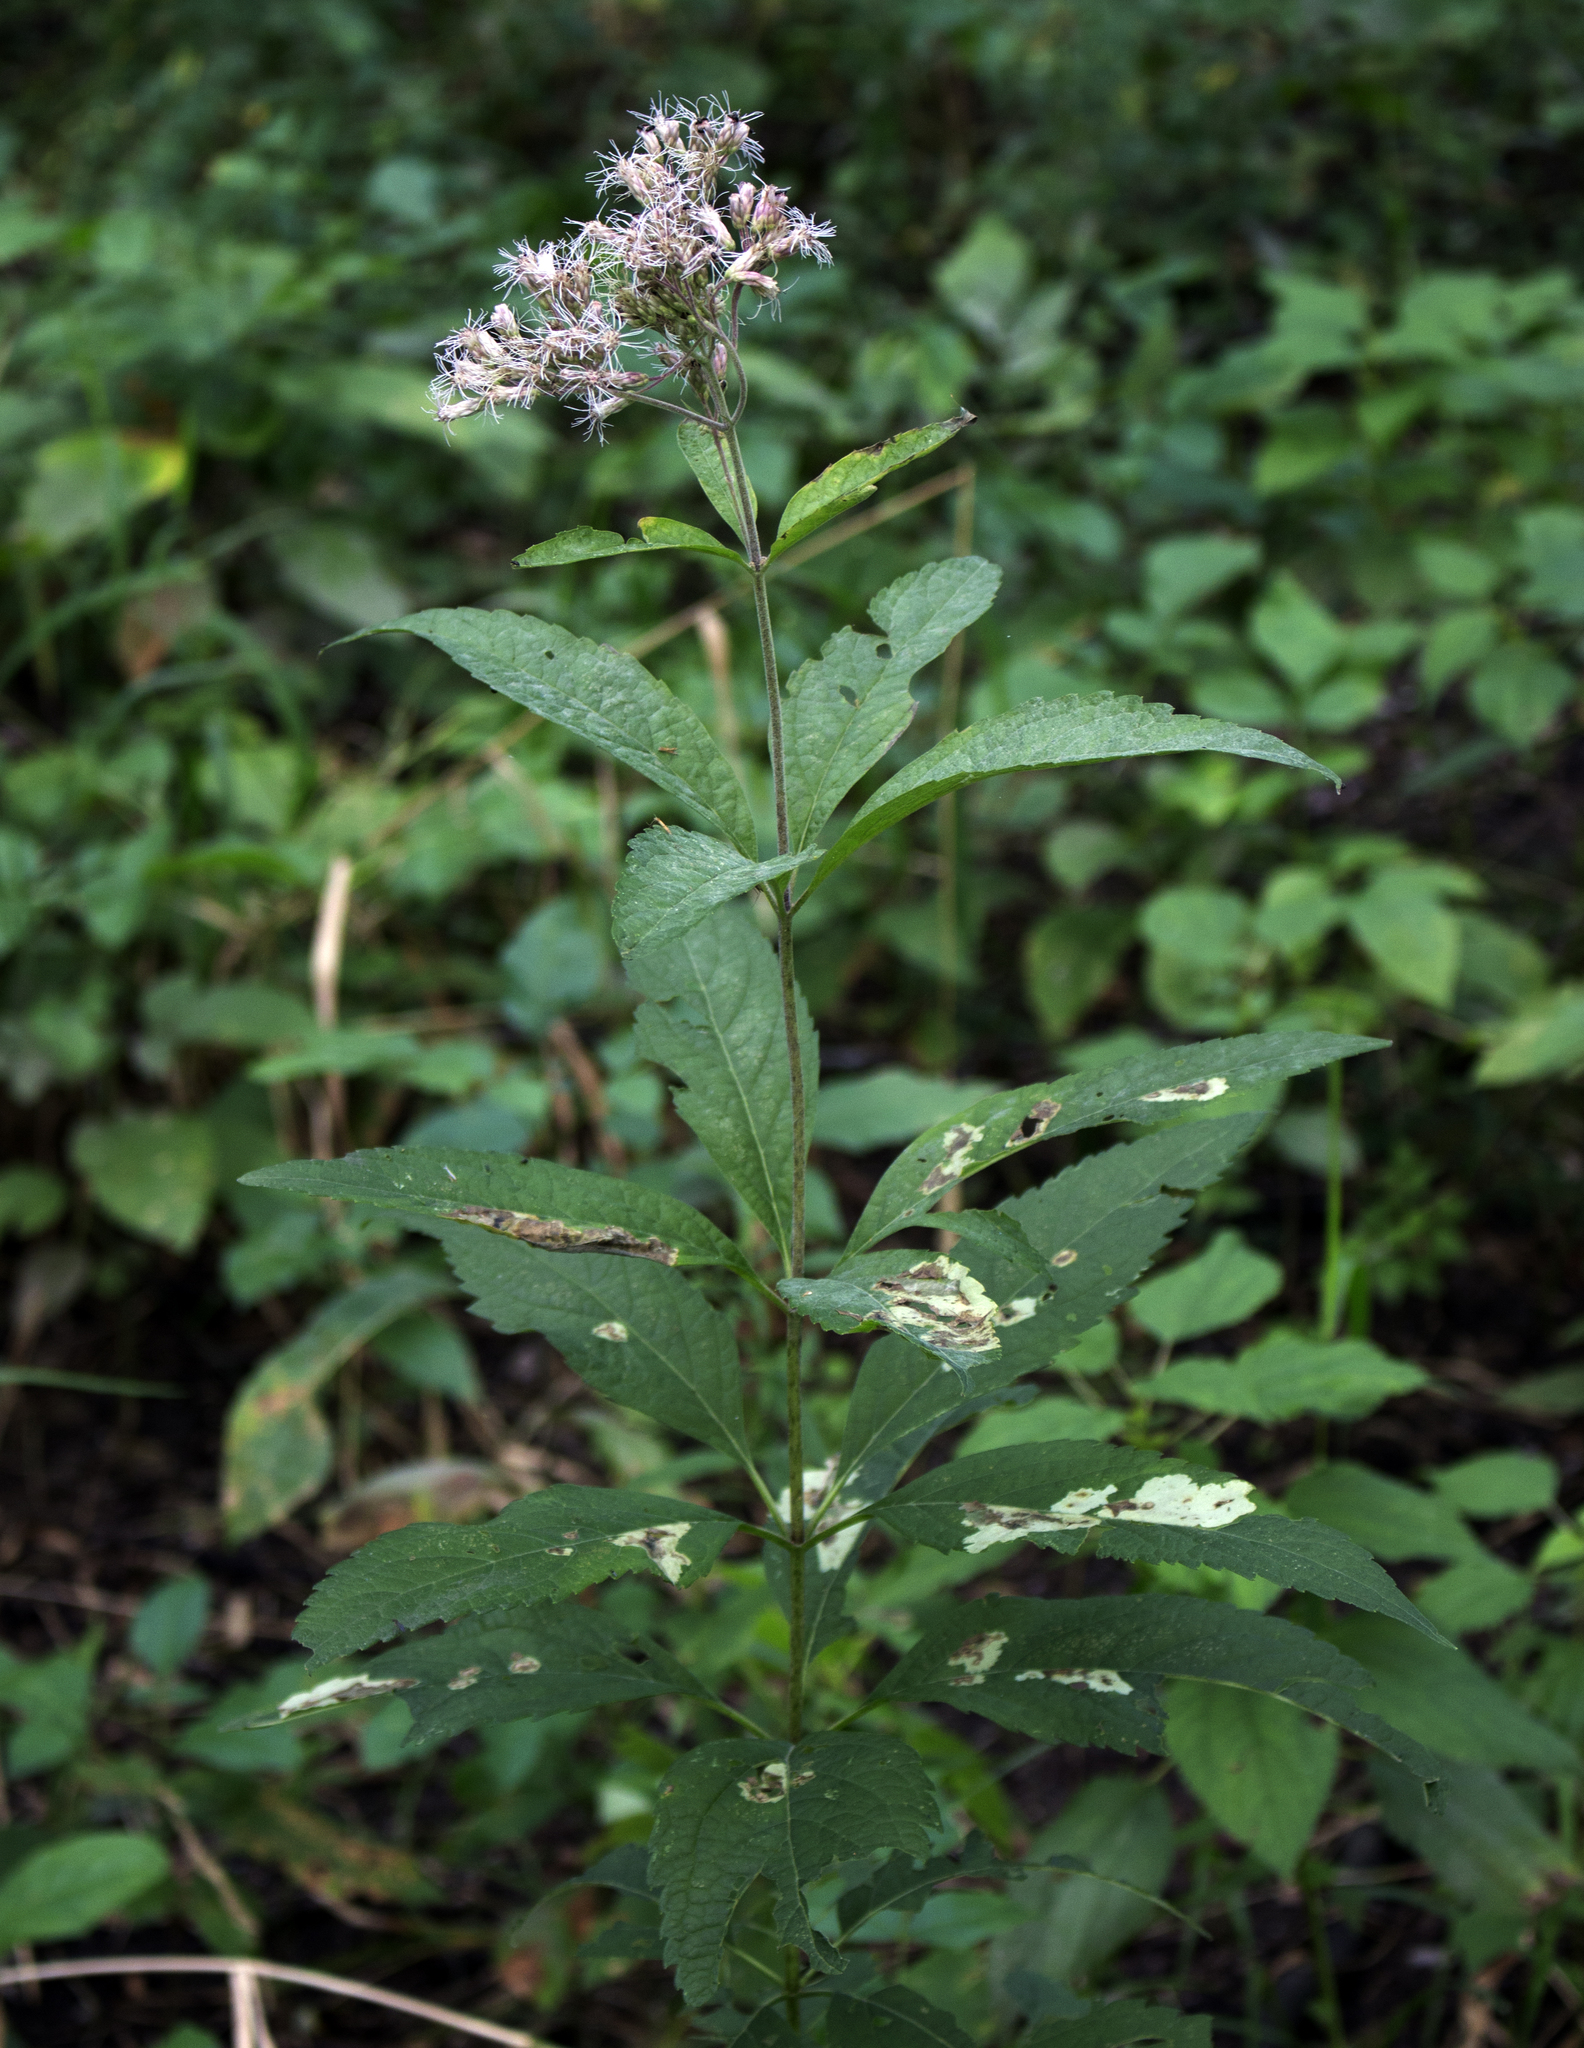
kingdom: Plantae
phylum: Tracheophyta
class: Magnoliopsida
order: Asterales
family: Asteraceae
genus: Eutrochium
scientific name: Eutrochium purpureum
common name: Gravelroot
